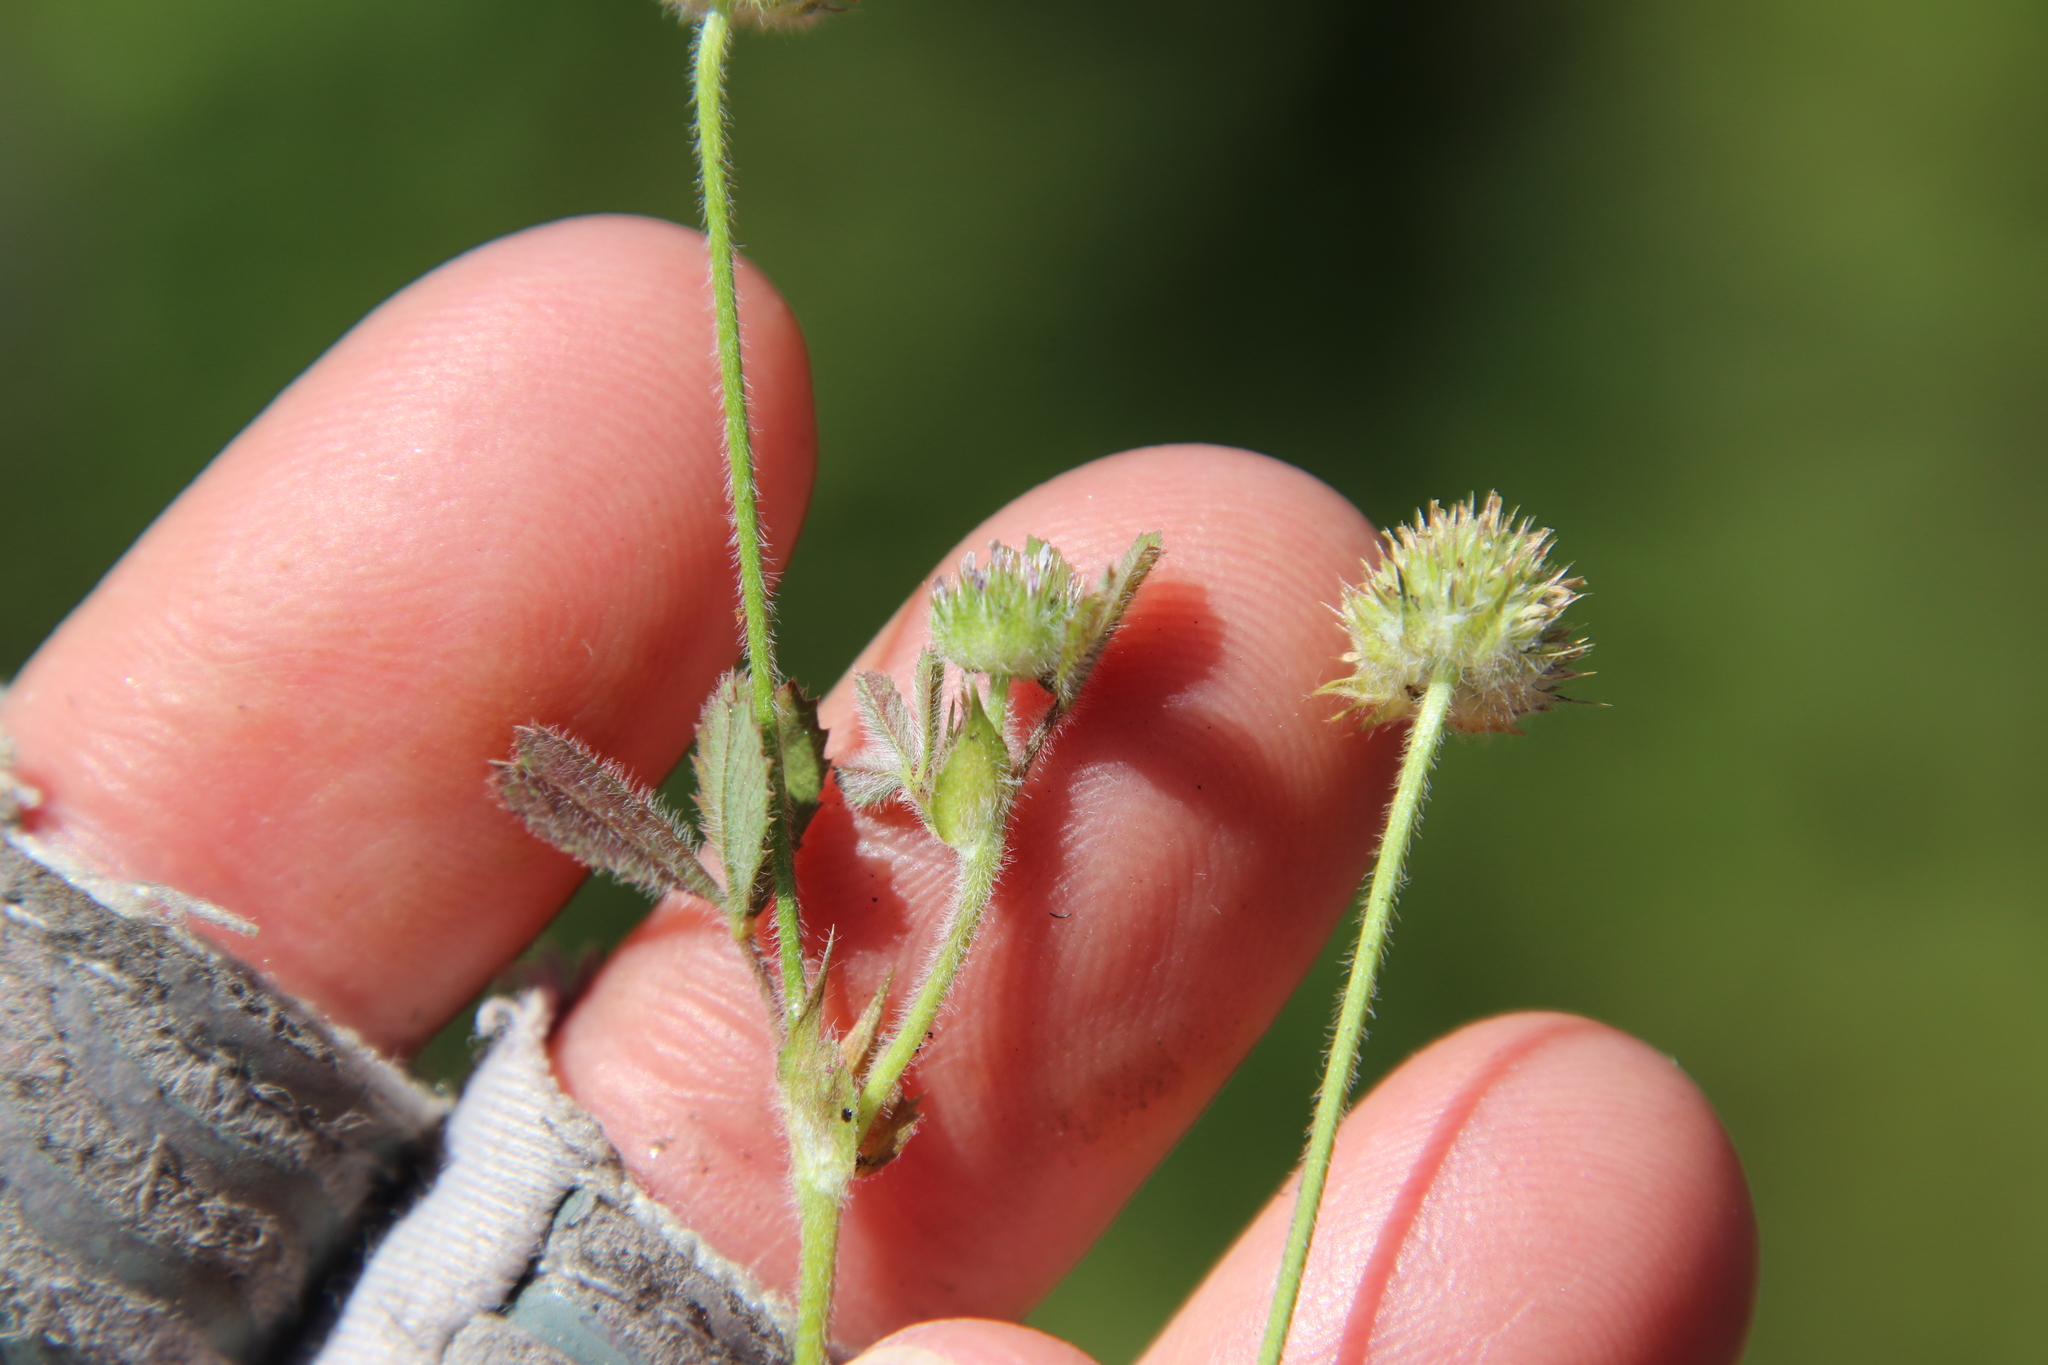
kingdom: Plantae
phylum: Tracheophyta
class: Magnoliopsida
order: Fabales
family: Fabaceae
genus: Trifolium
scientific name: Trifolium microcephalum
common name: Maiden clover
